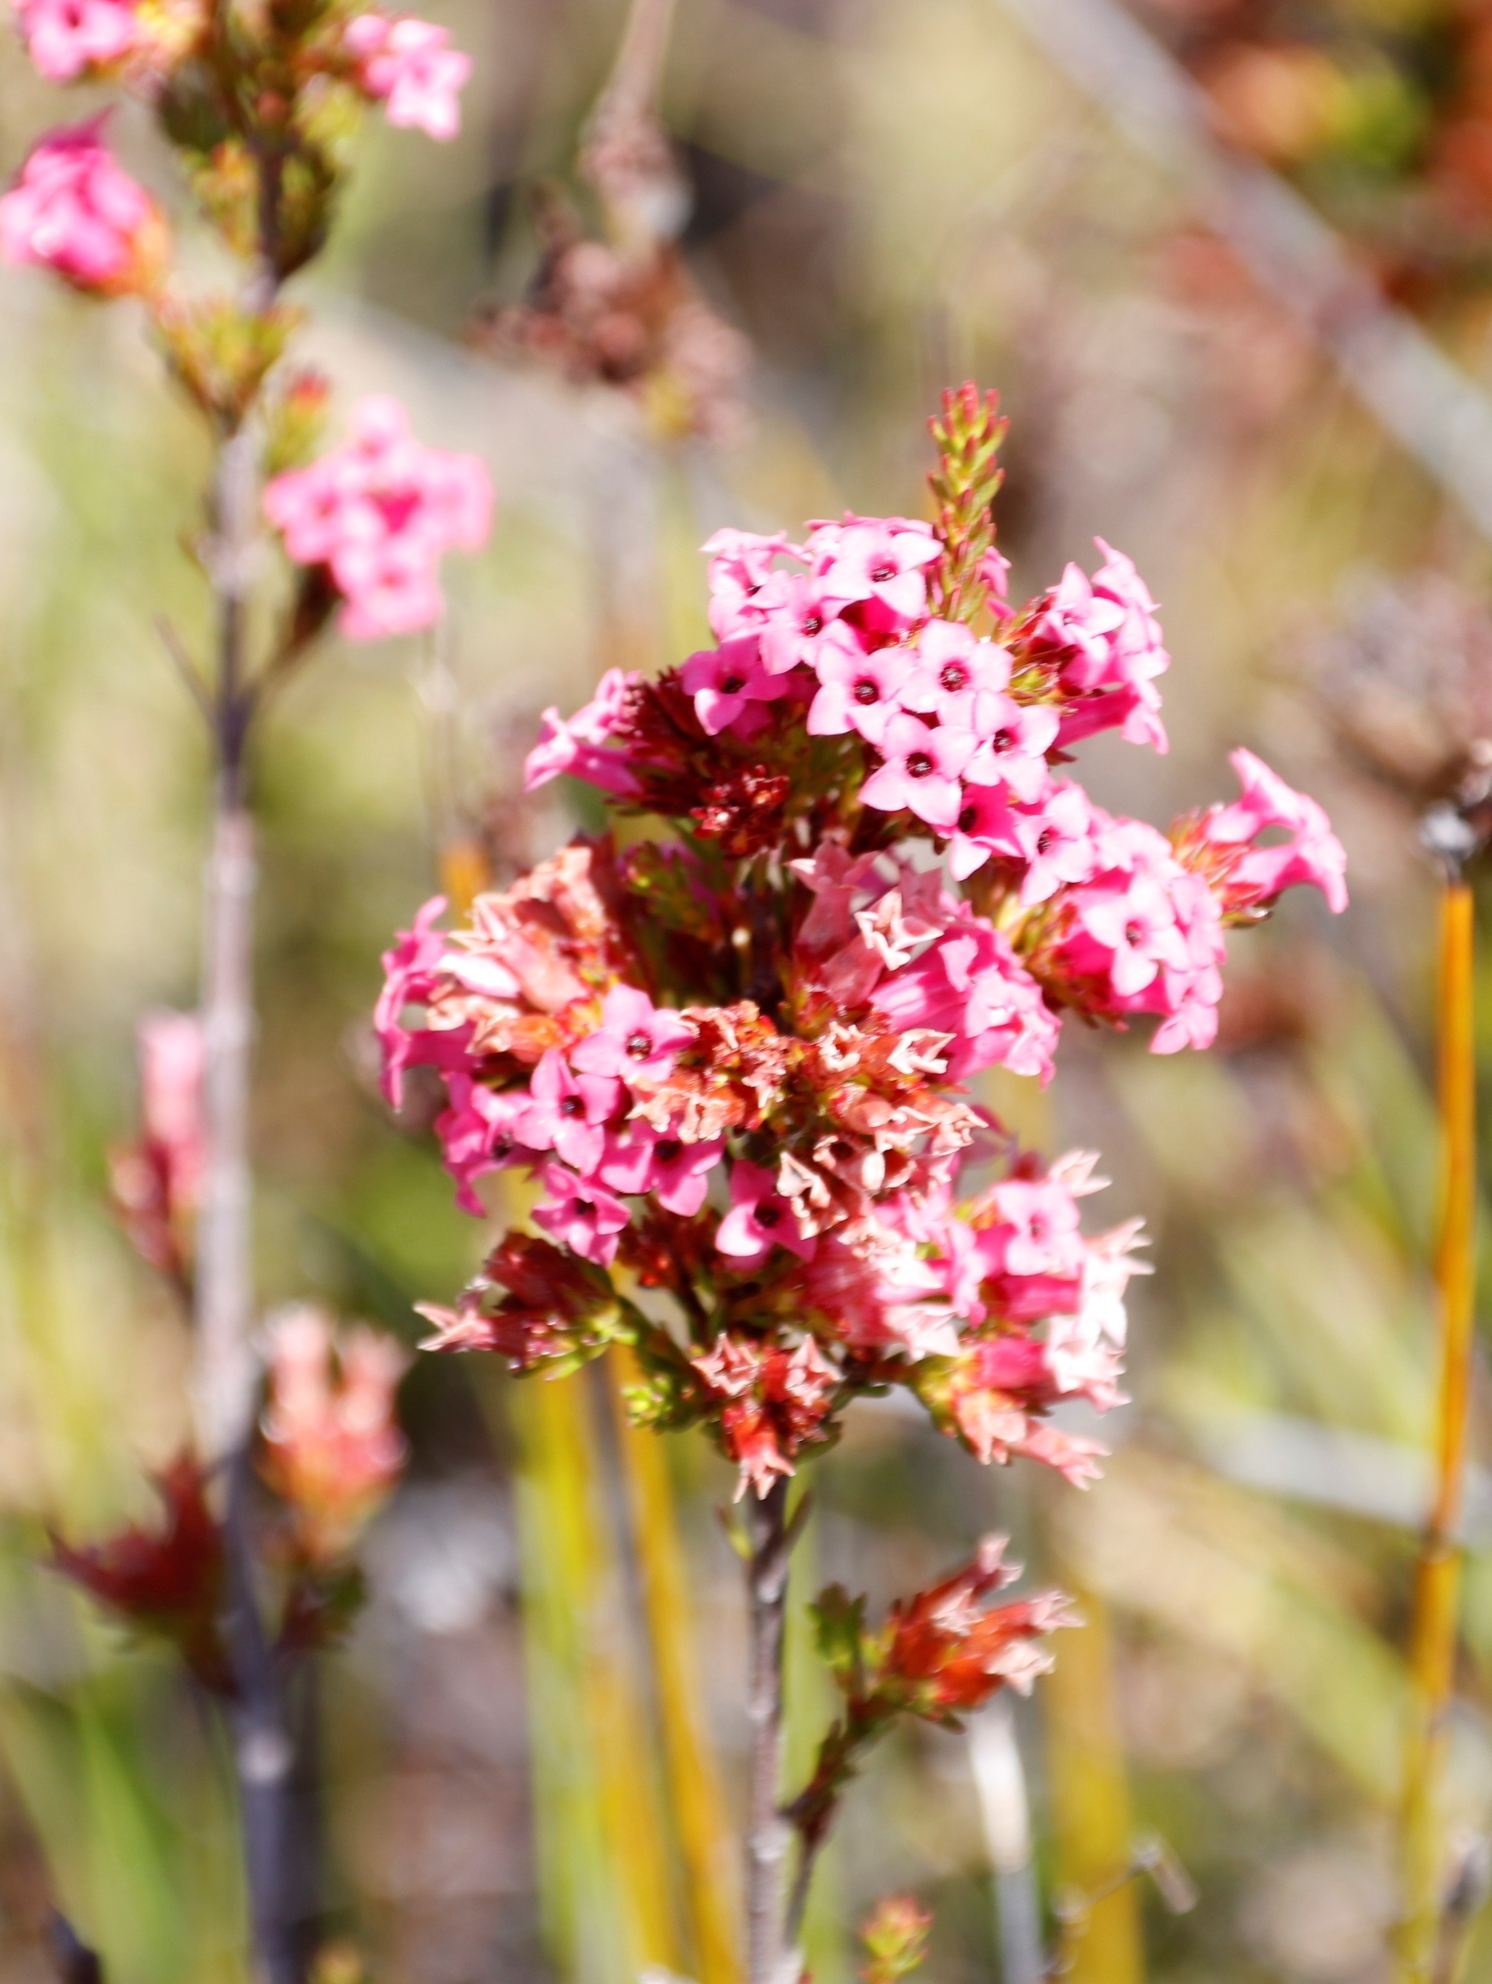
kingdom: Plantae
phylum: Tracheophyta
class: Magnoliopsida
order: Ericales
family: Ericaceae
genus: Erica
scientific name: Erica fastigiata
